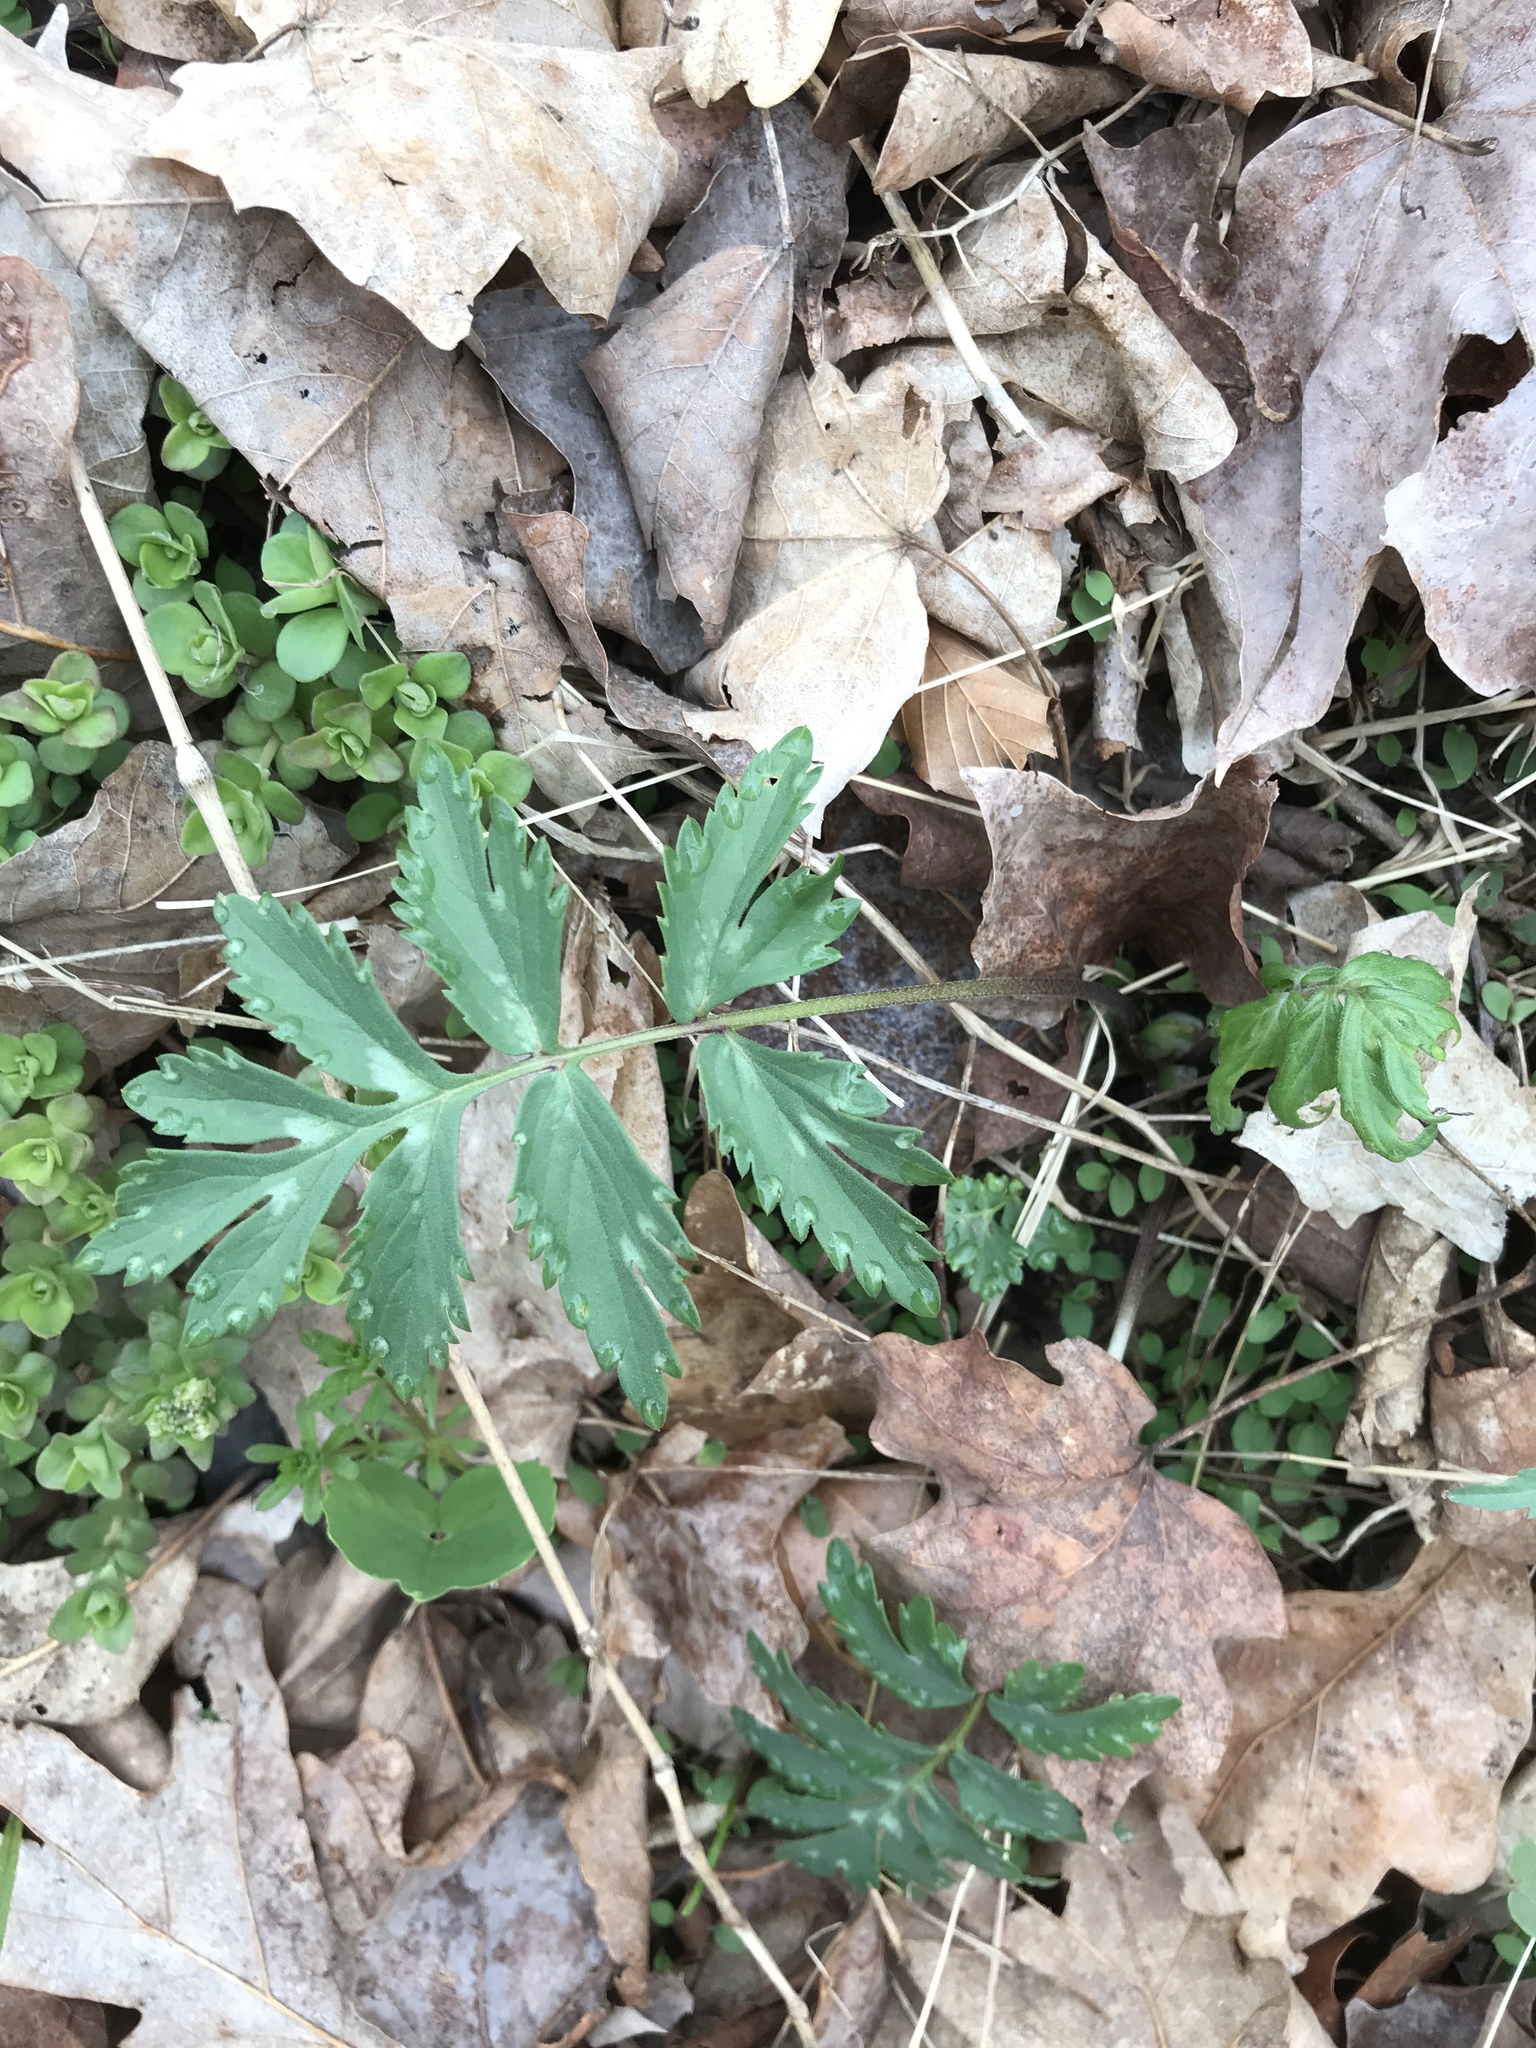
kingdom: Plantae
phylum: Tracheophyta
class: Magnoliopsida
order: Boraginales
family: Hydrophyllaceae
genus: Hydrophyllum
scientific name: Hydrophyllum virginianum
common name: Virginia waterleaf
